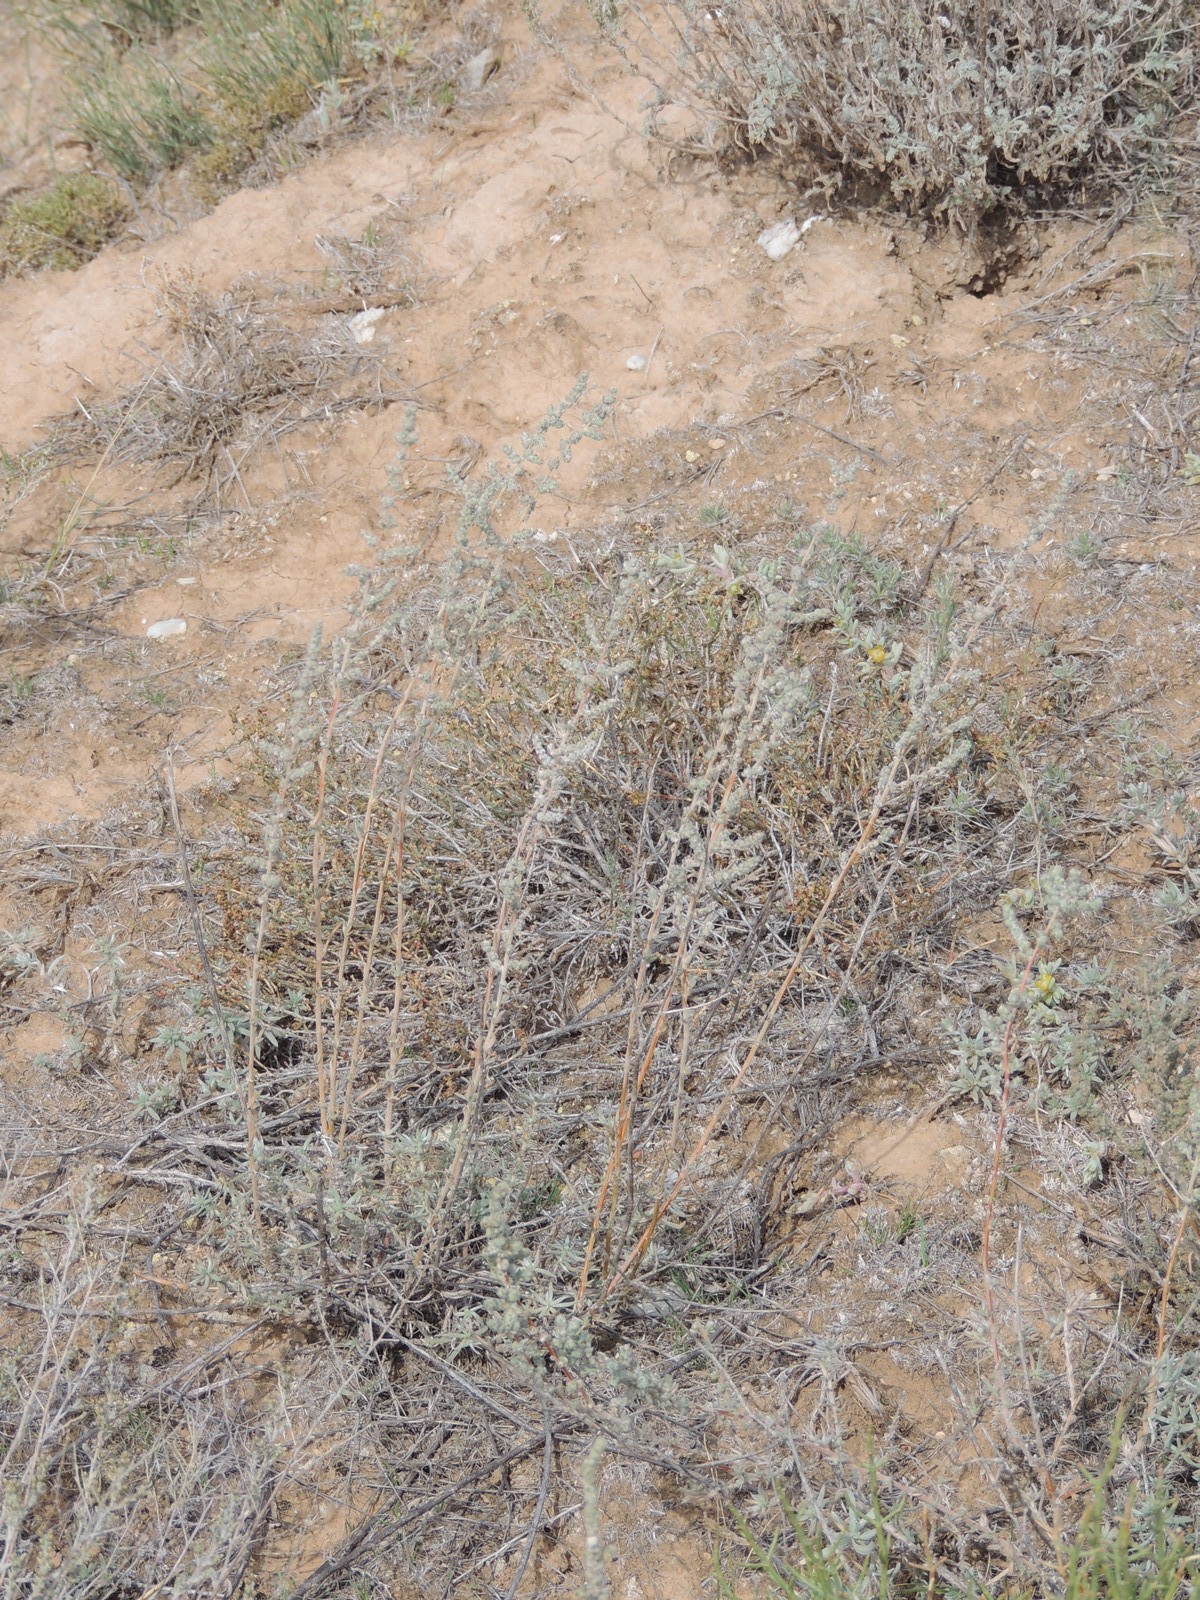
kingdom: Plantae
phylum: Tracheophyta
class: Magnoliopsida
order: Caryophyllales
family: Amaranthaceae
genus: Bassia
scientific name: Bassia prostrata
